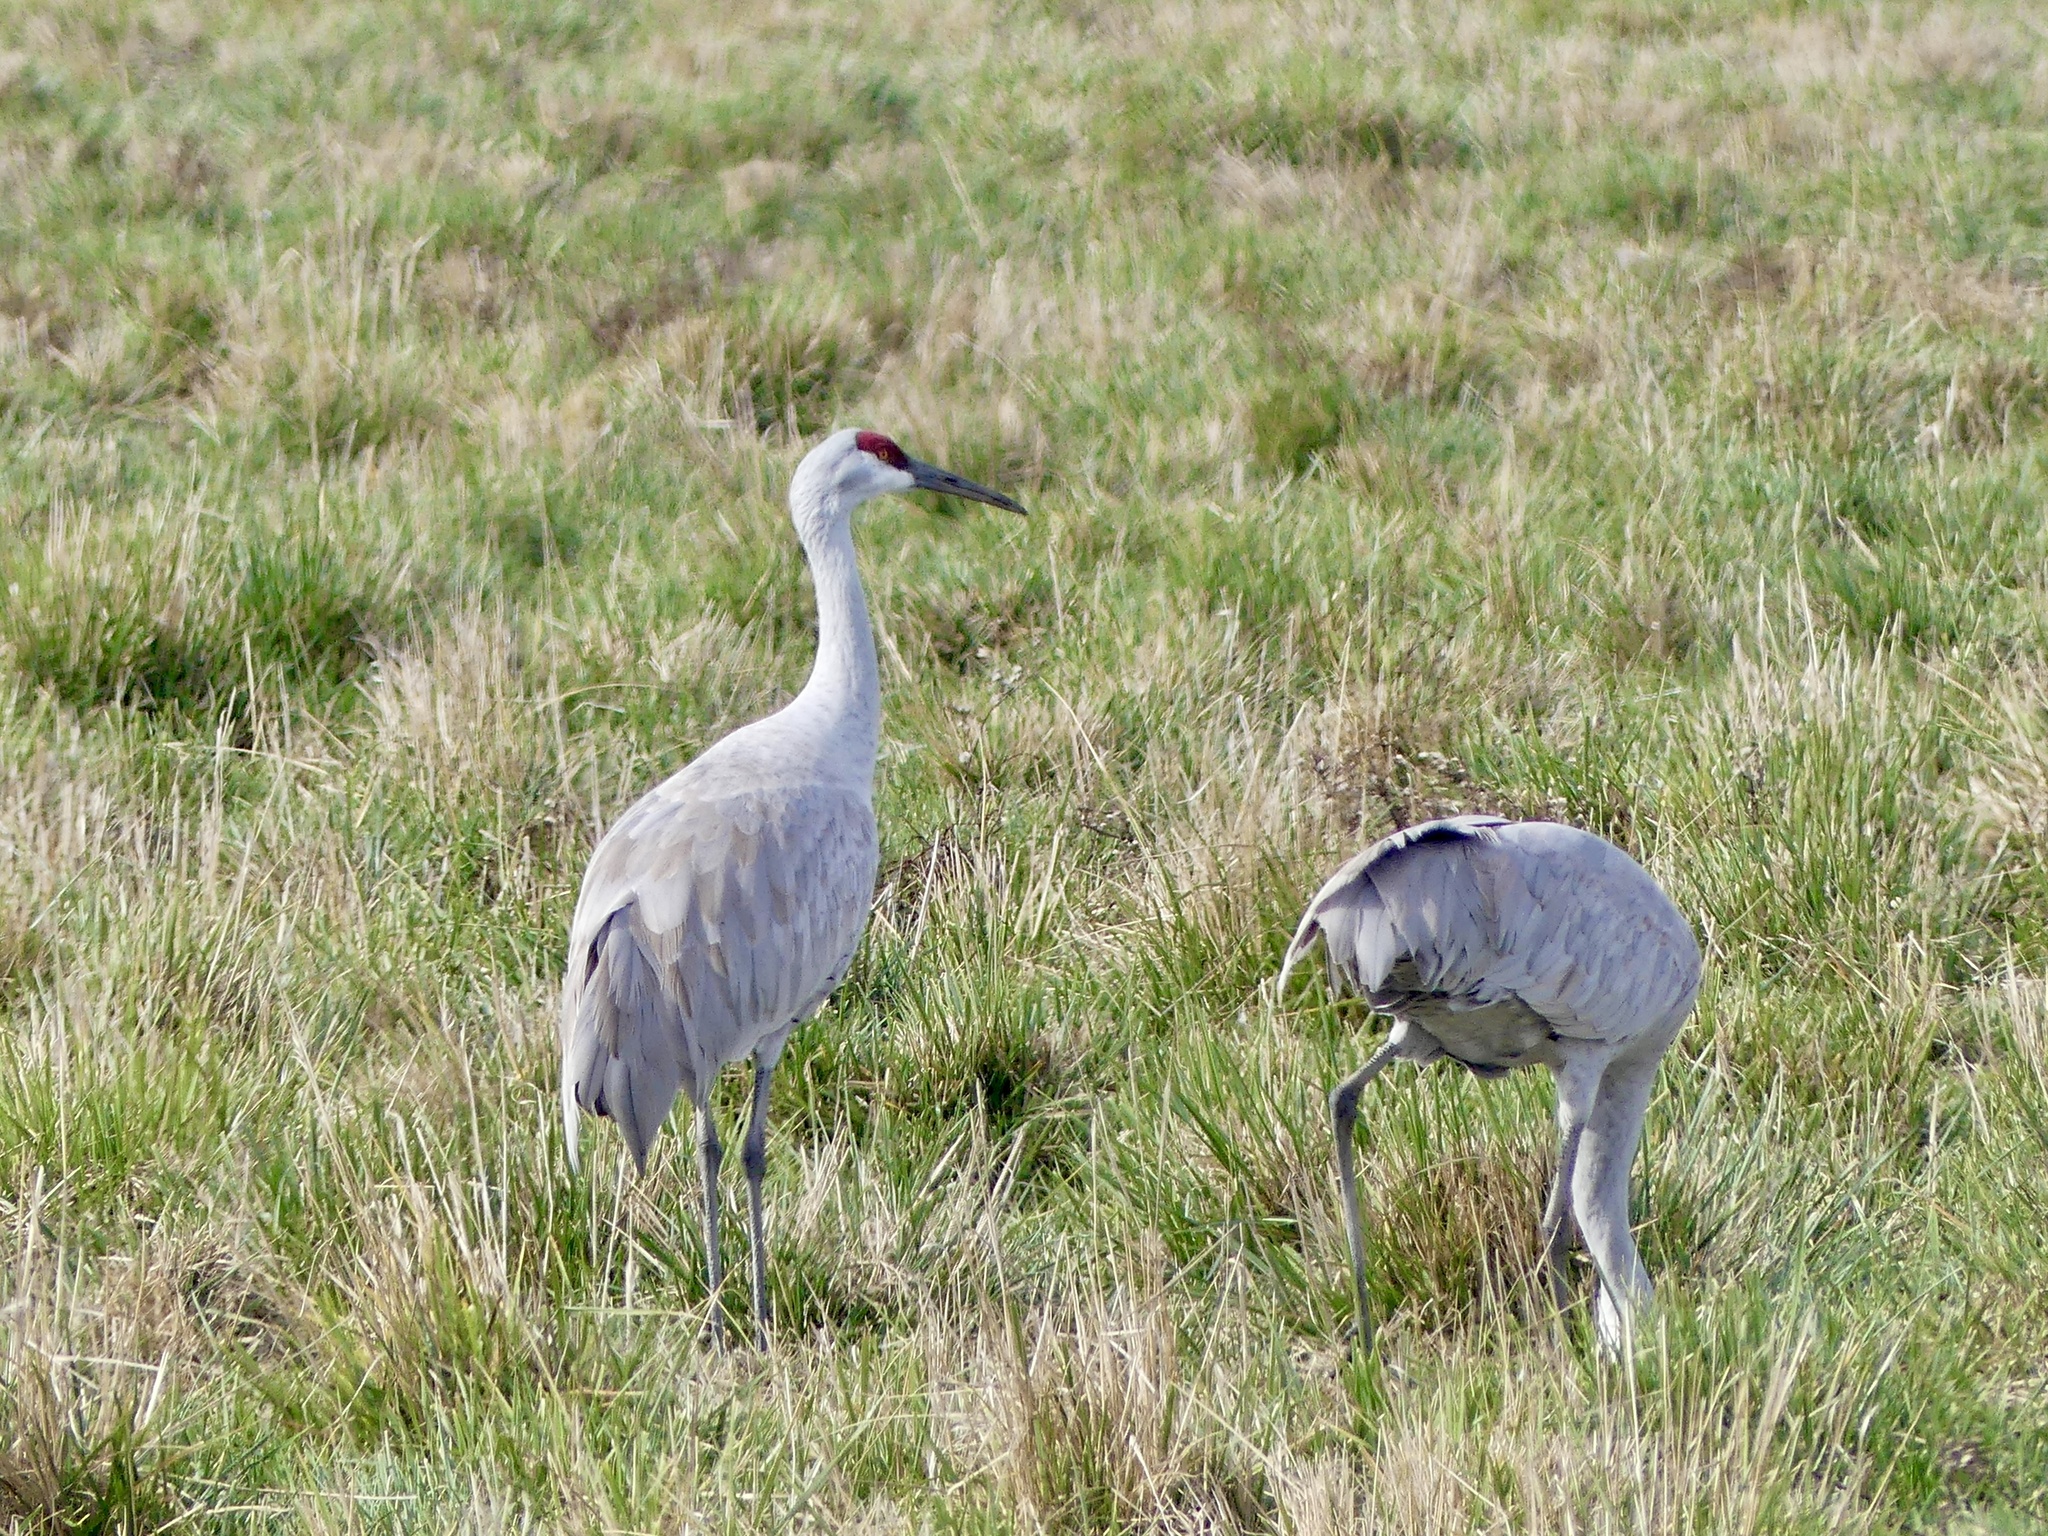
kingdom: Animalia
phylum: Chordata
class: Aves
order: Gruiformes
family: Gruidae
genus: Grus
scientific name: Grus canadensis
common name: Sandhill crane
